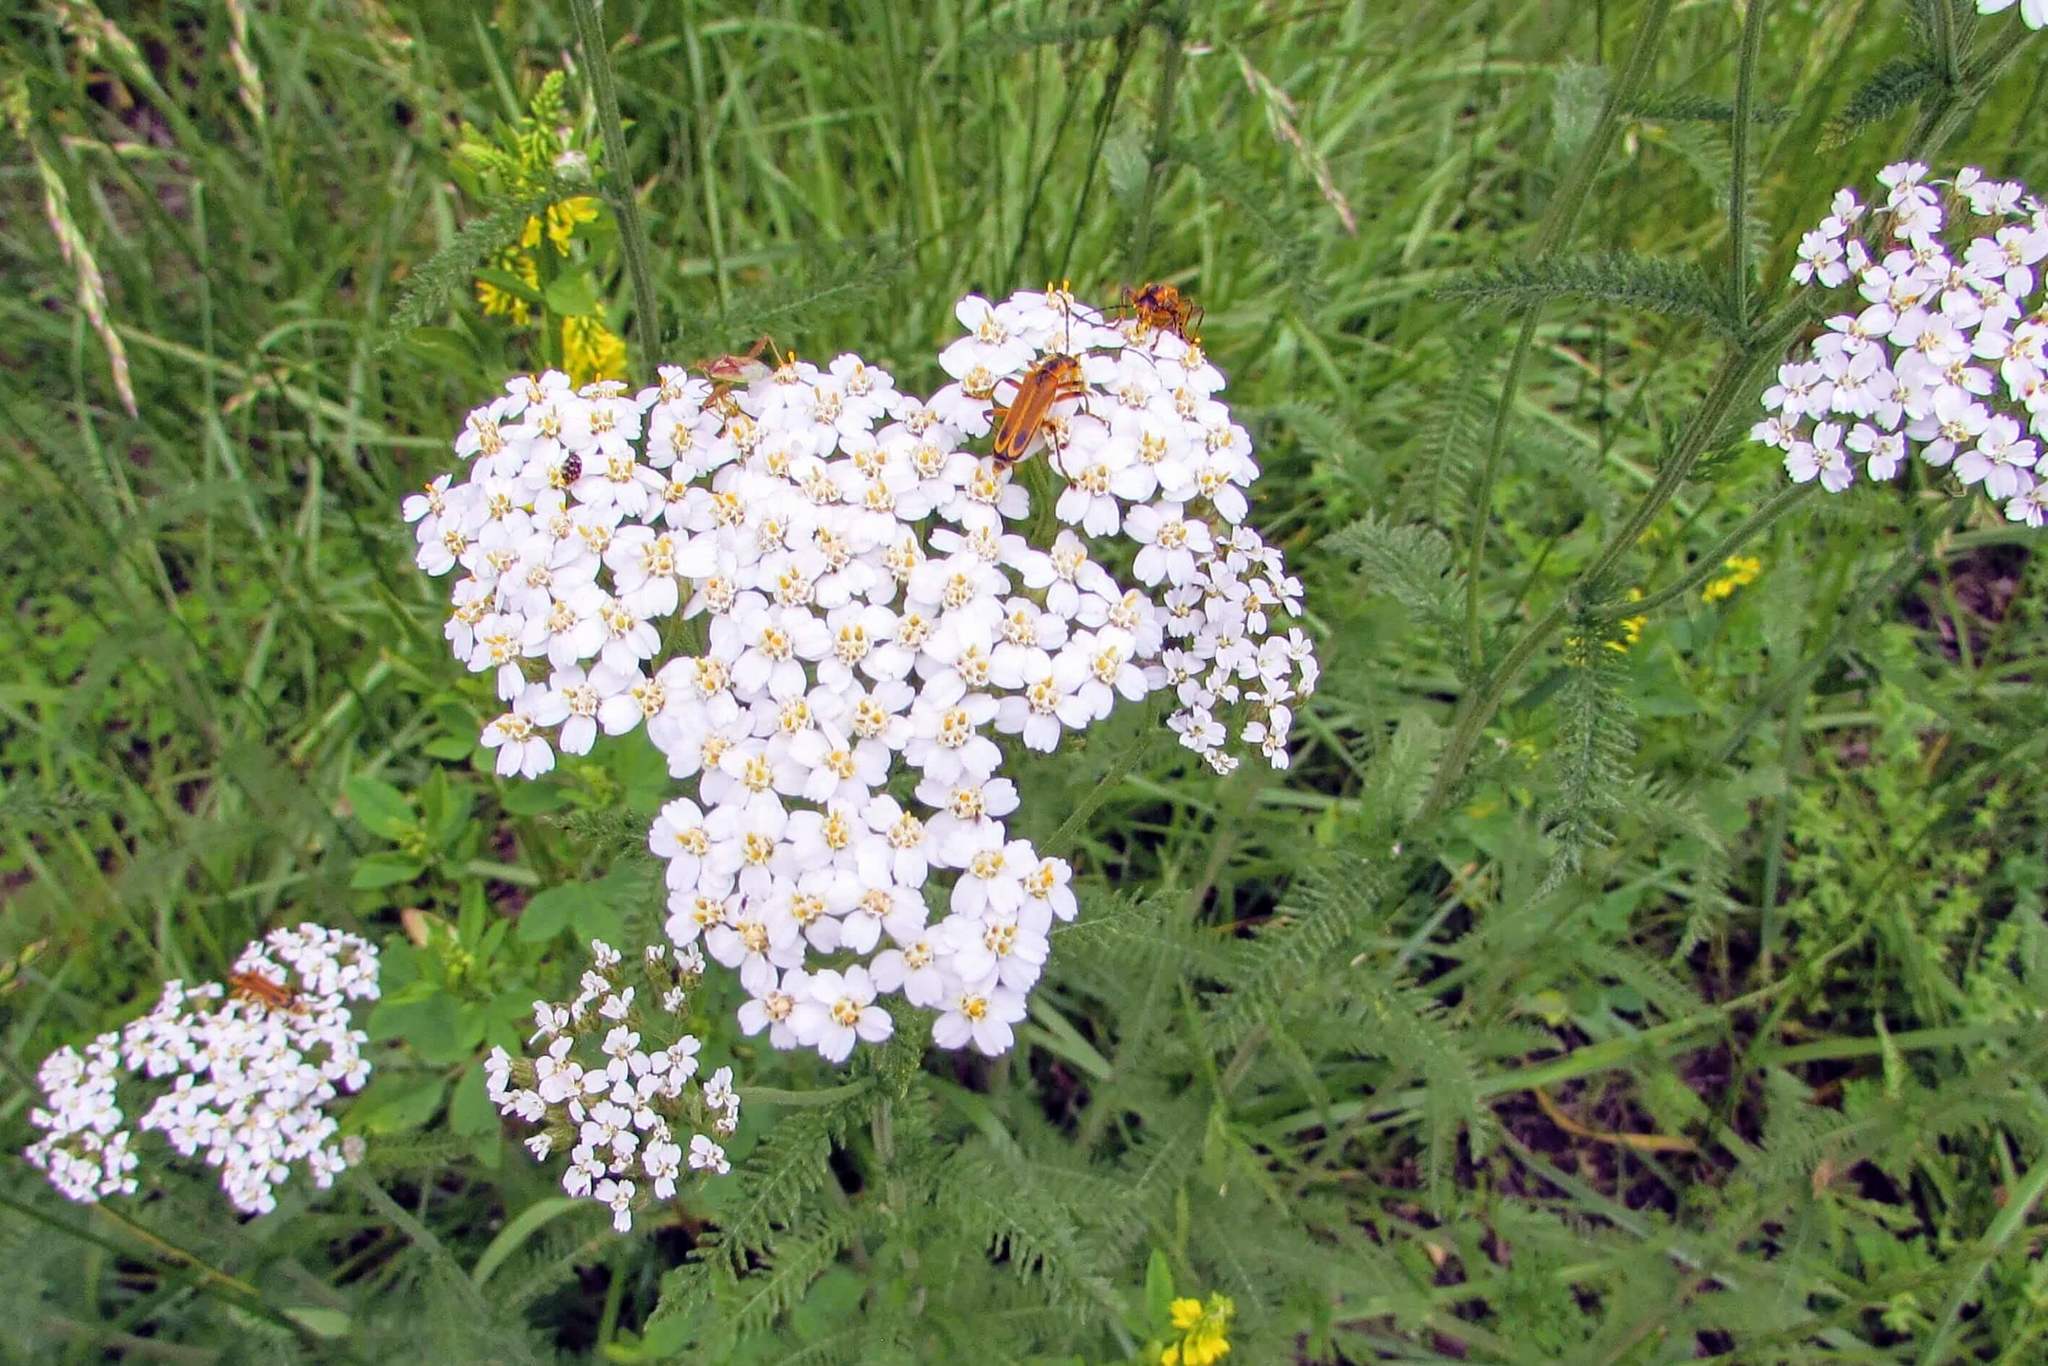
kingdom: Plantae
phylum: Tracheophyta
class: Magnoliopsida
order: Asterales
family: Asteraceae
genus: Achillea
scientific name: Achillea millefolium
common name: Yarrow
